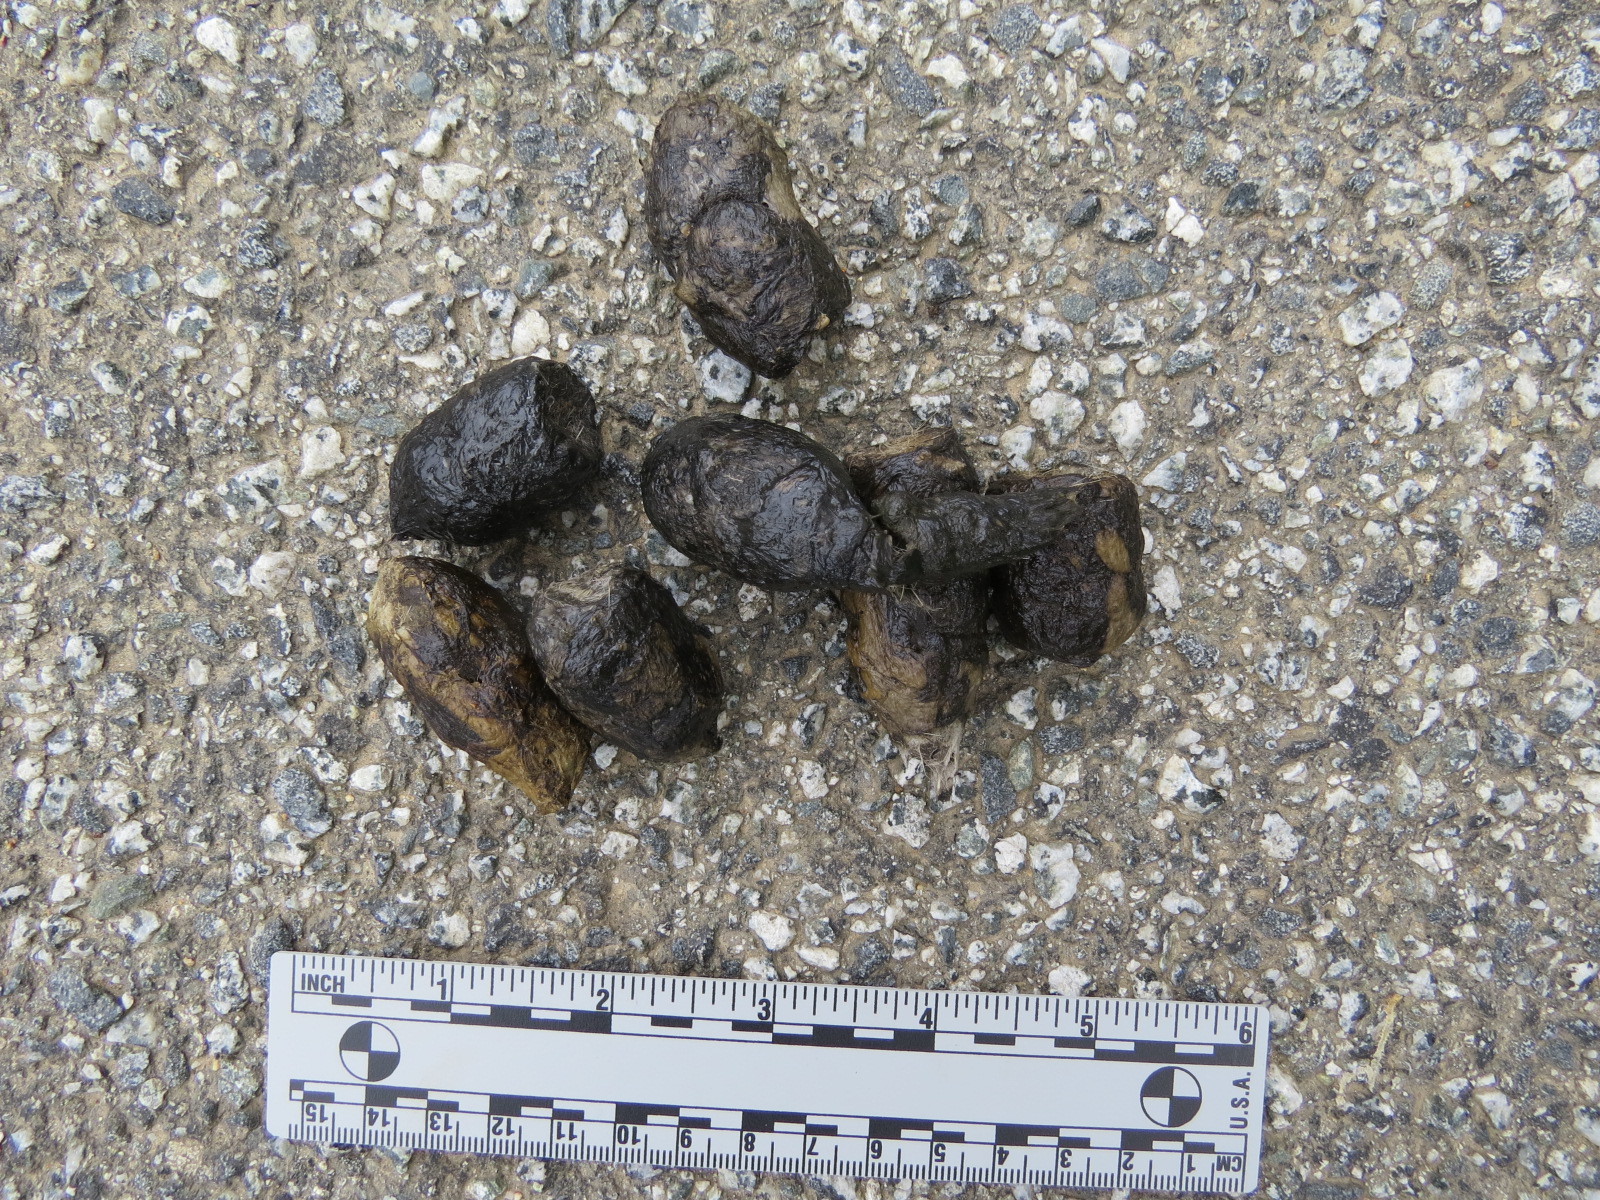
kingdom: Animalia
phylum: Chordata
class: Mammalia
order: Carnivora
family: Felidae
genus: Lynx
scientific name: Lynx rufus
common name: Bobcat
